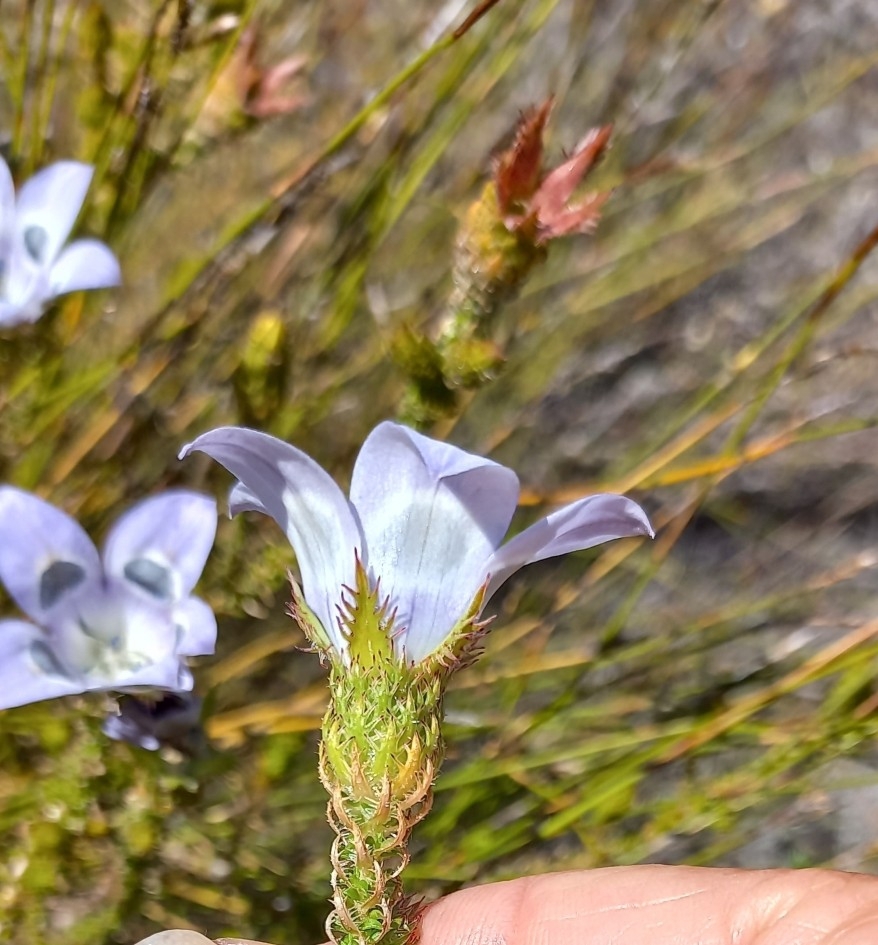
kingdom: Plantae
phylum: Tracheophyta
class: Magnoliopsida
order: Asterales
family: Campanulaceae
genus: Roella
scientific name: Roella ciliata
